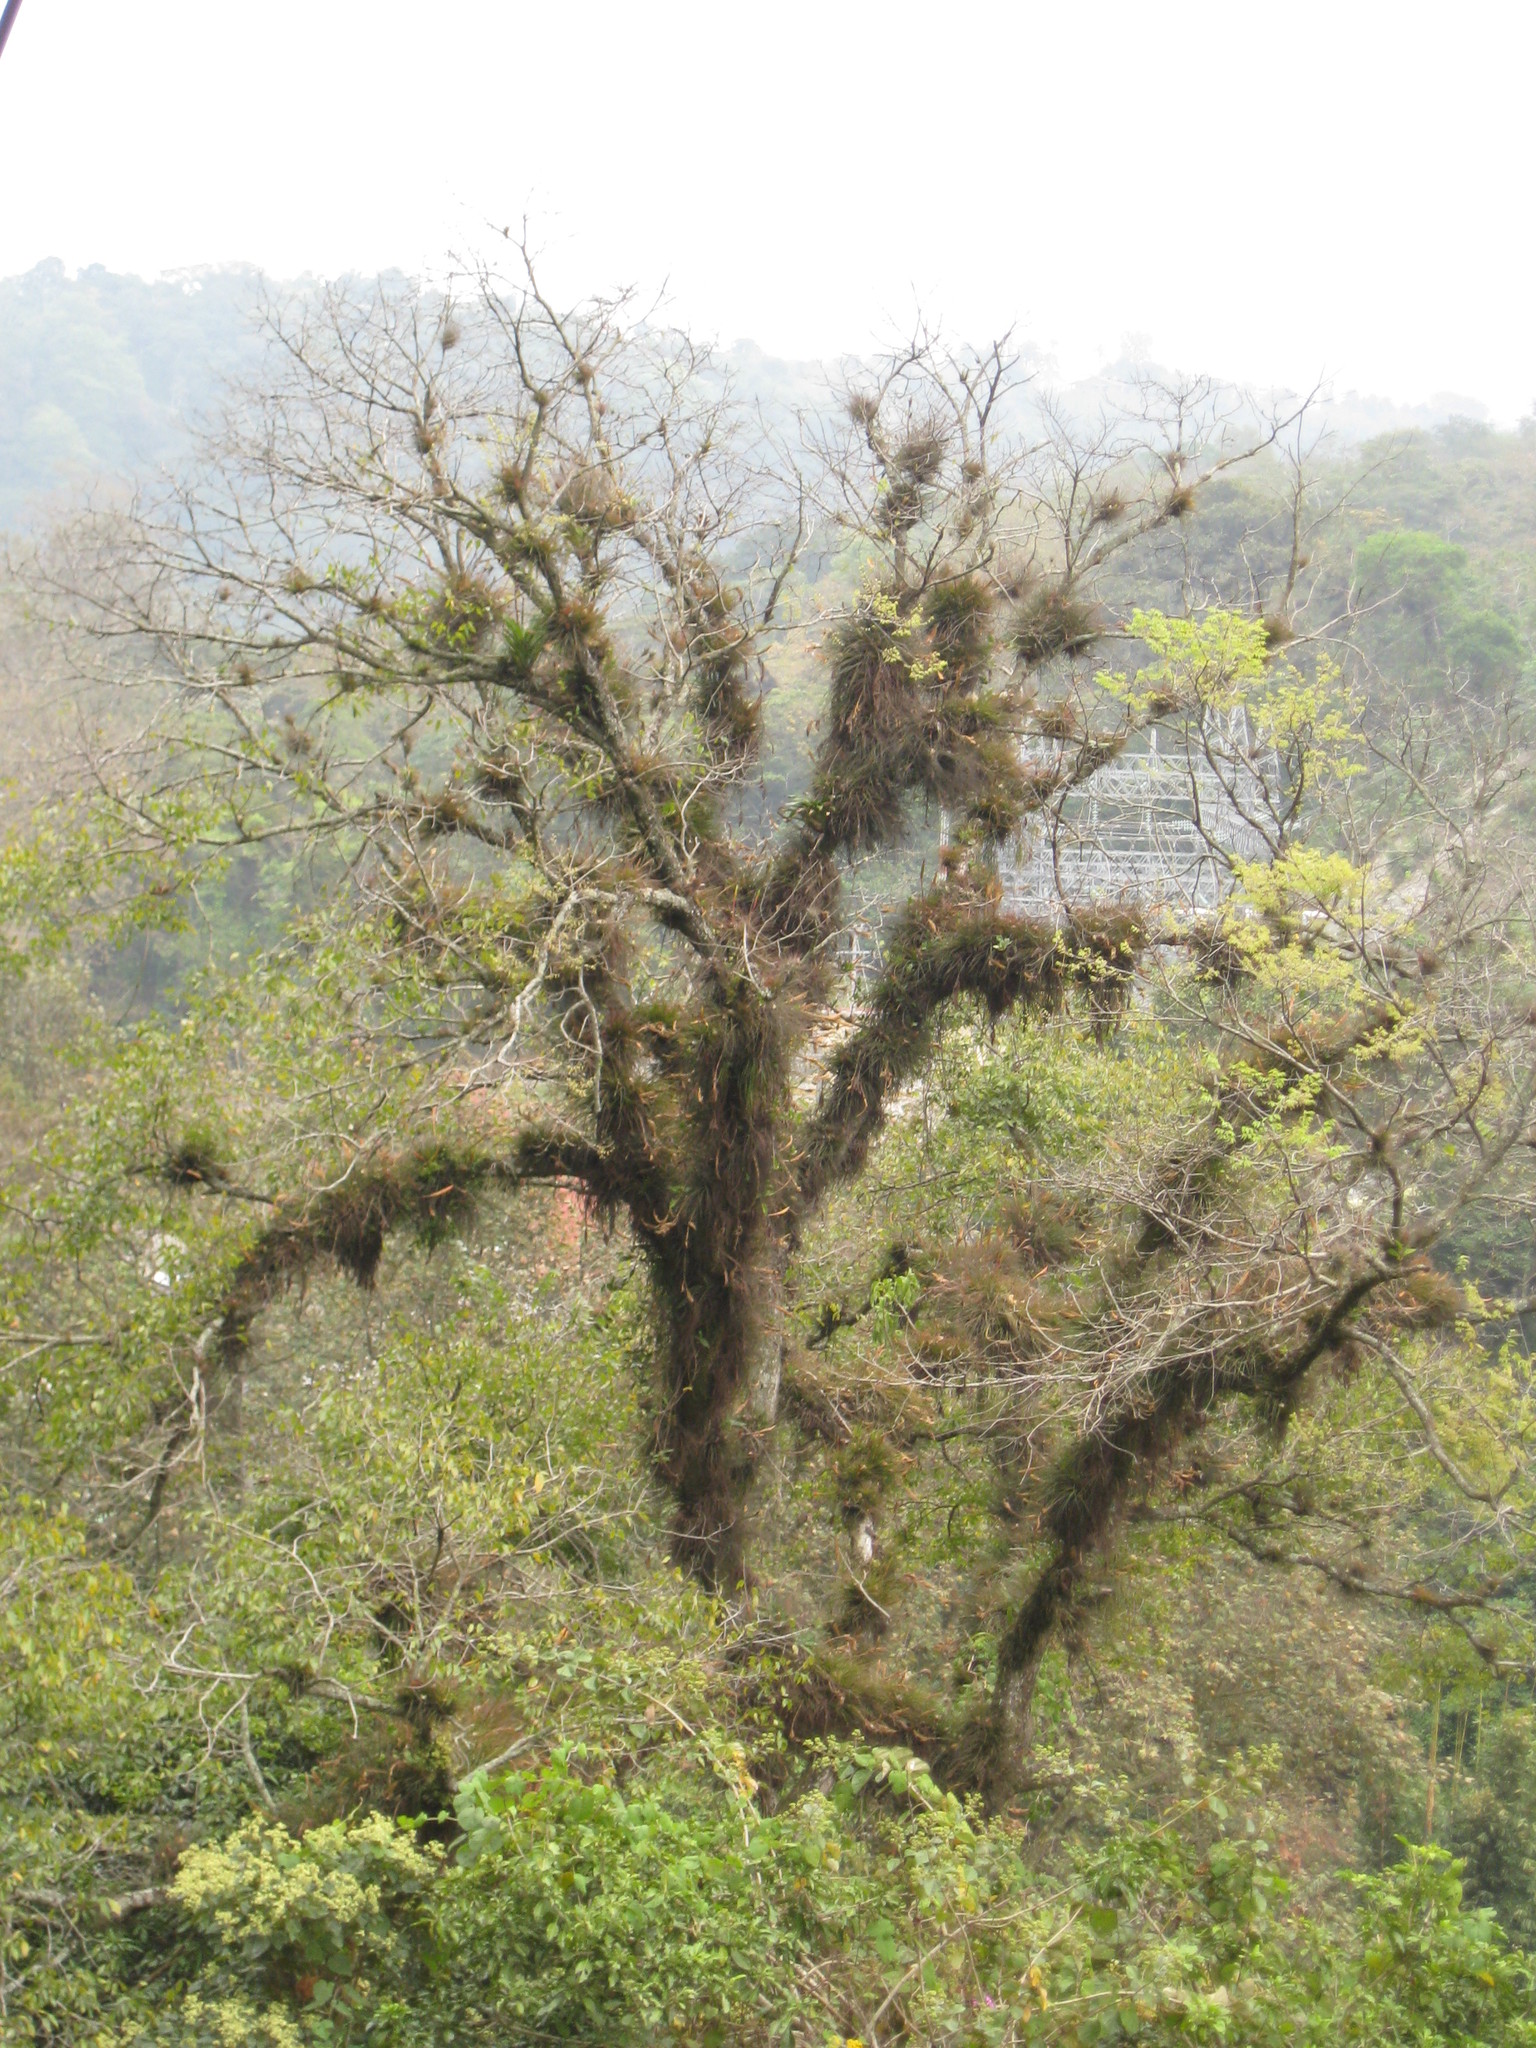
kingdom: Plantae
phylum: Tracheophyta
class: Liliopsida
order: Poales
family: Bromeliaceae
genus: Tillandsia
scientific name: Tillandsia recurvata
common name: Small ballmoss
